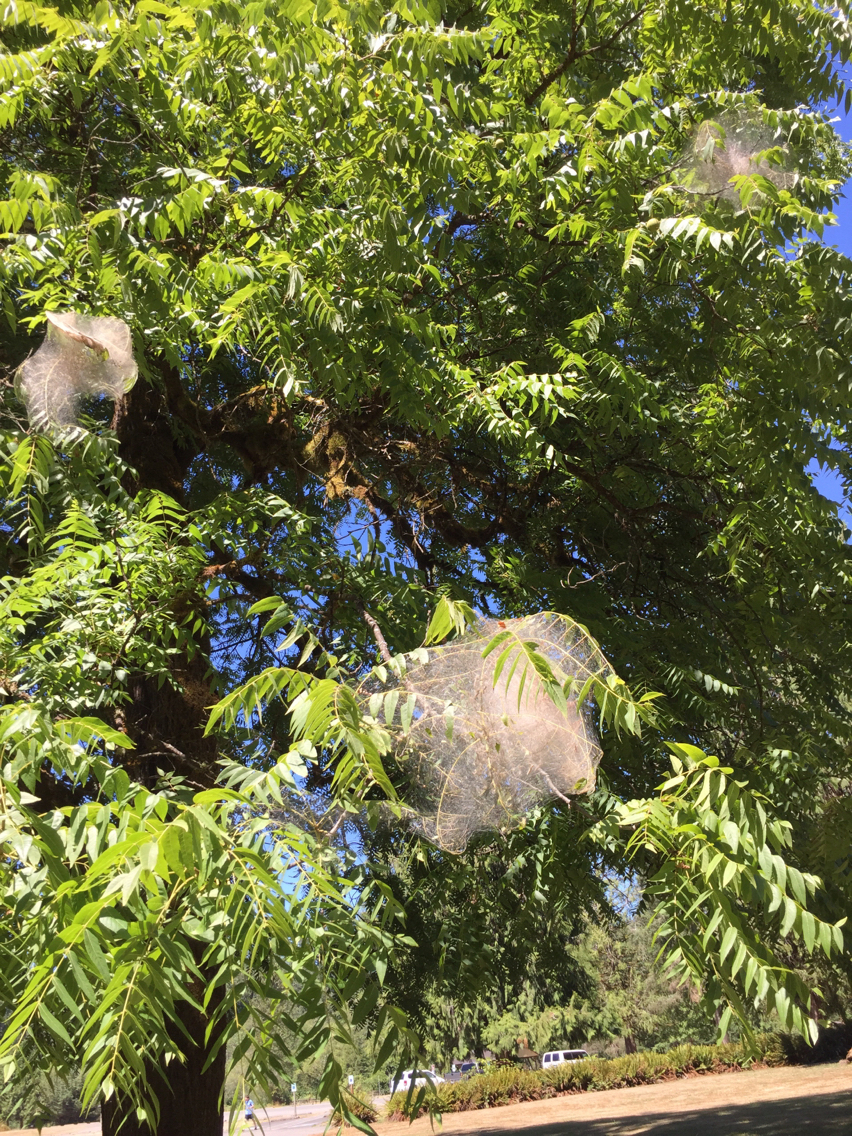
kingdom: Animalia
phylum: Arthropoda
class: Insecta
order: Lepidoptera
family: Lasiocampidae
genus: Malacosoma
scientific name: Malacosoma californica
